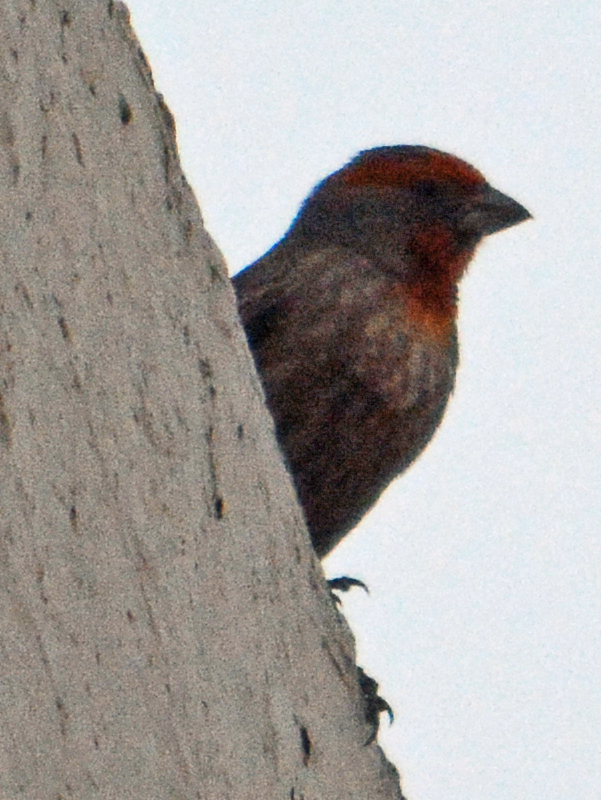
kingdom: Animalia
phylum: Chordata
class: Aves
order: Passeriformes
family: Fringillidae
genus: Haemorhous
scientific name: Haemorhous mexicanus
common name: House finch
